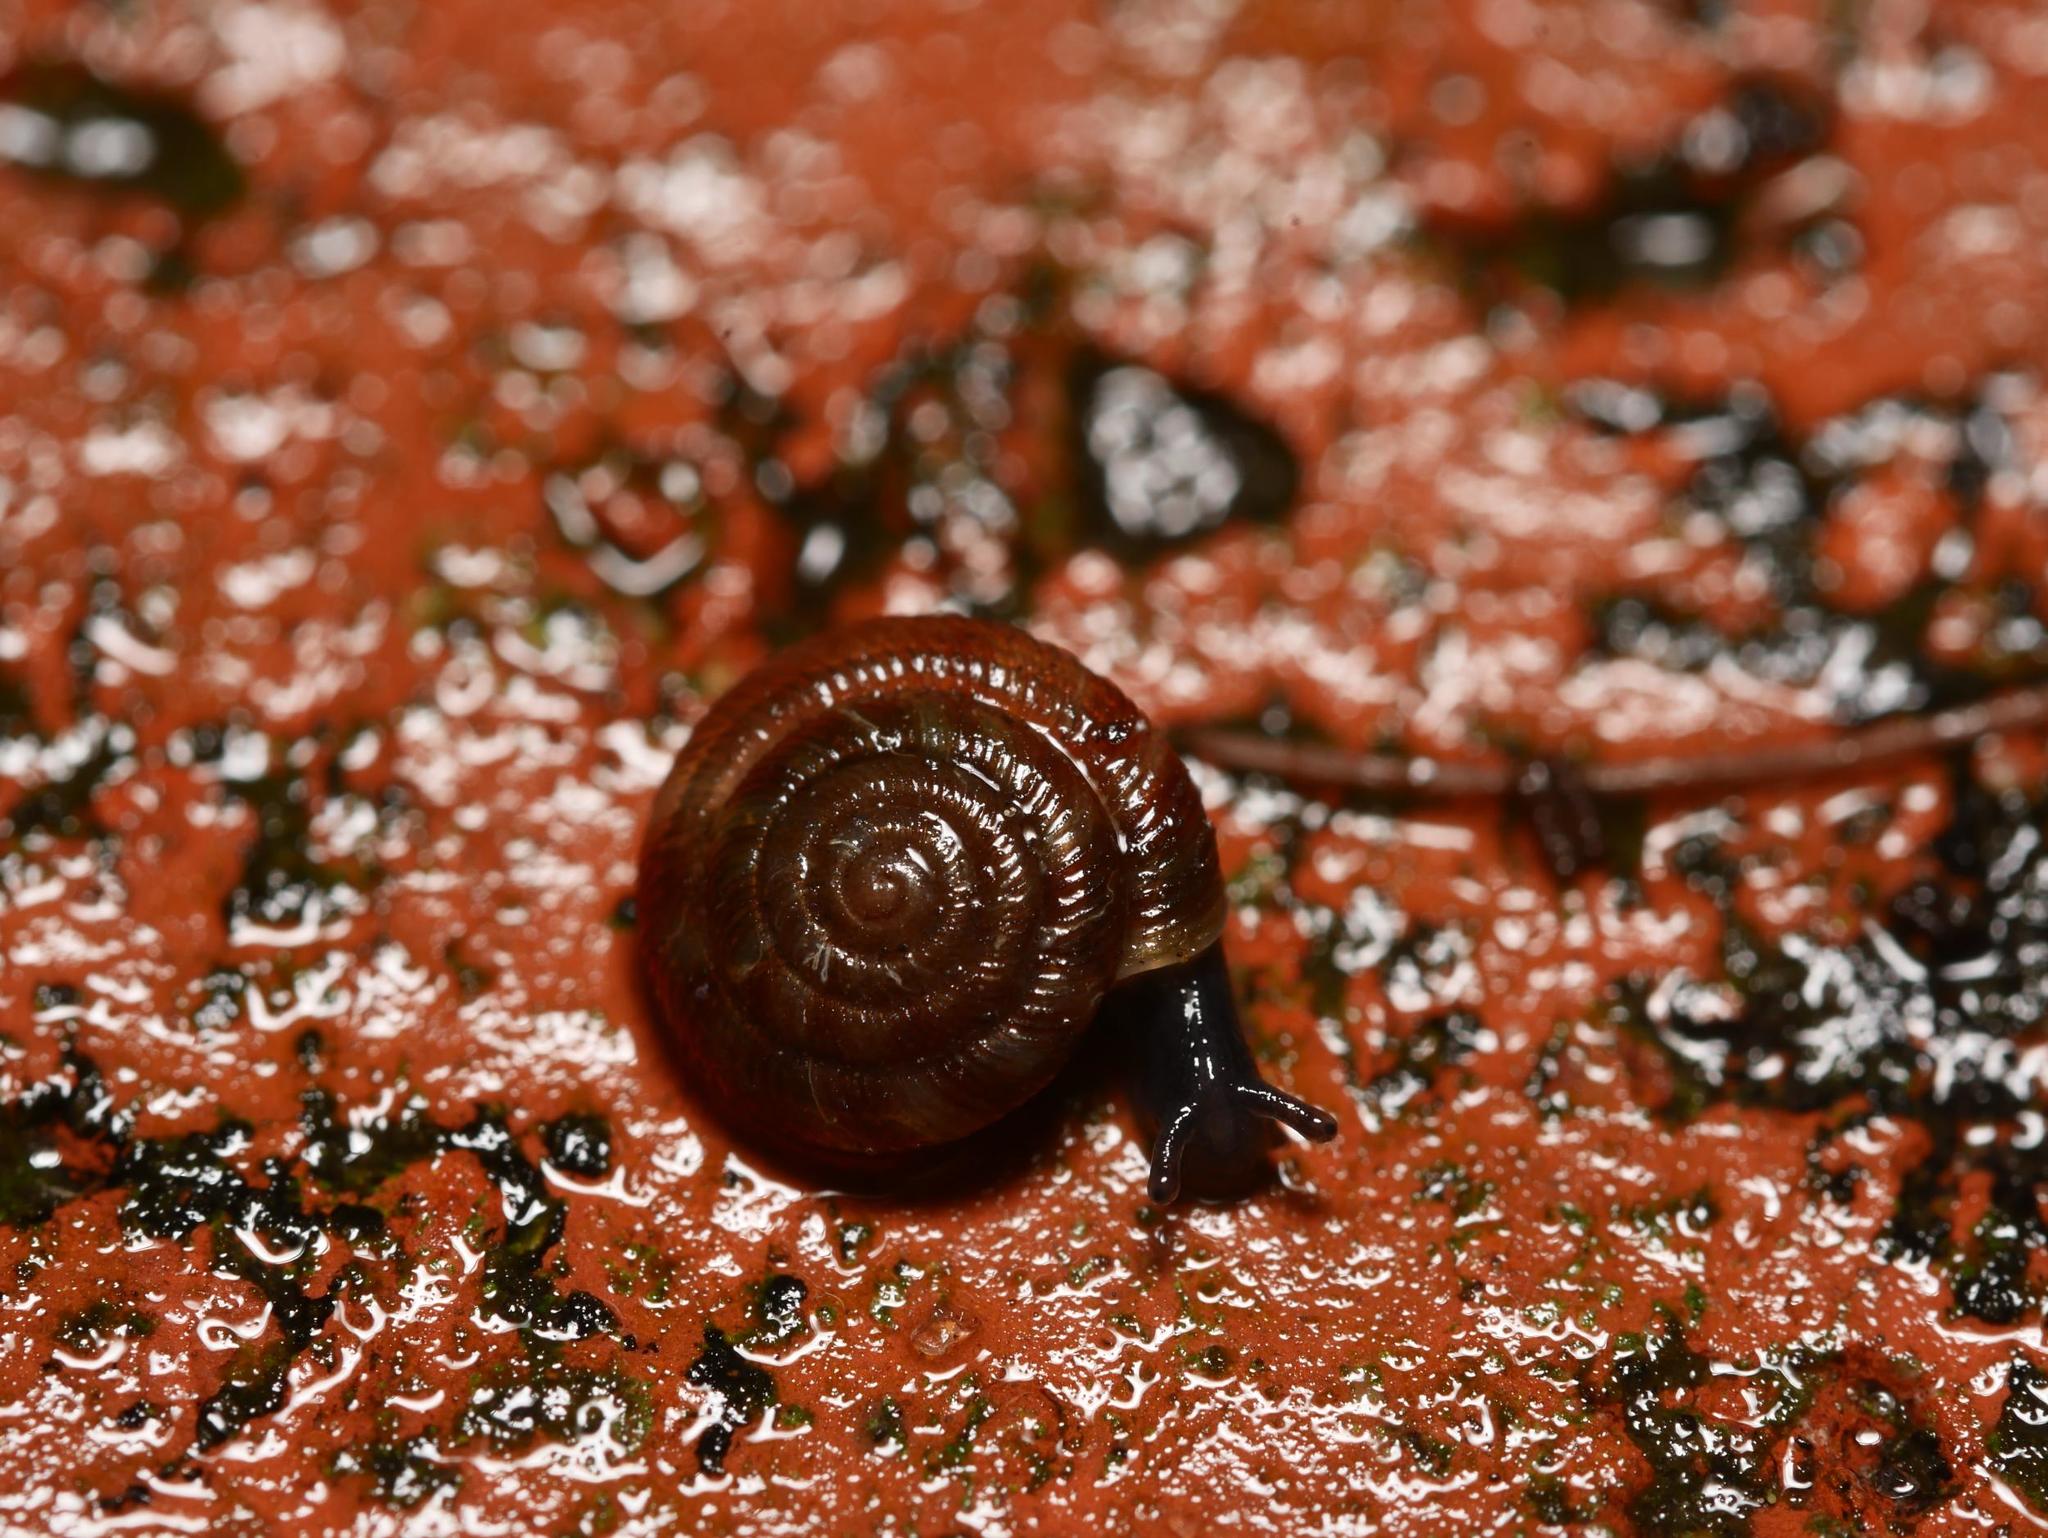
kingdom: Animalia
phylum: Mollusca
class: Gastropoda
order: Stylommatophora
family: Discidae
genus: Discus
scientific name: Discus rotundatus
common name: Rounded snail
